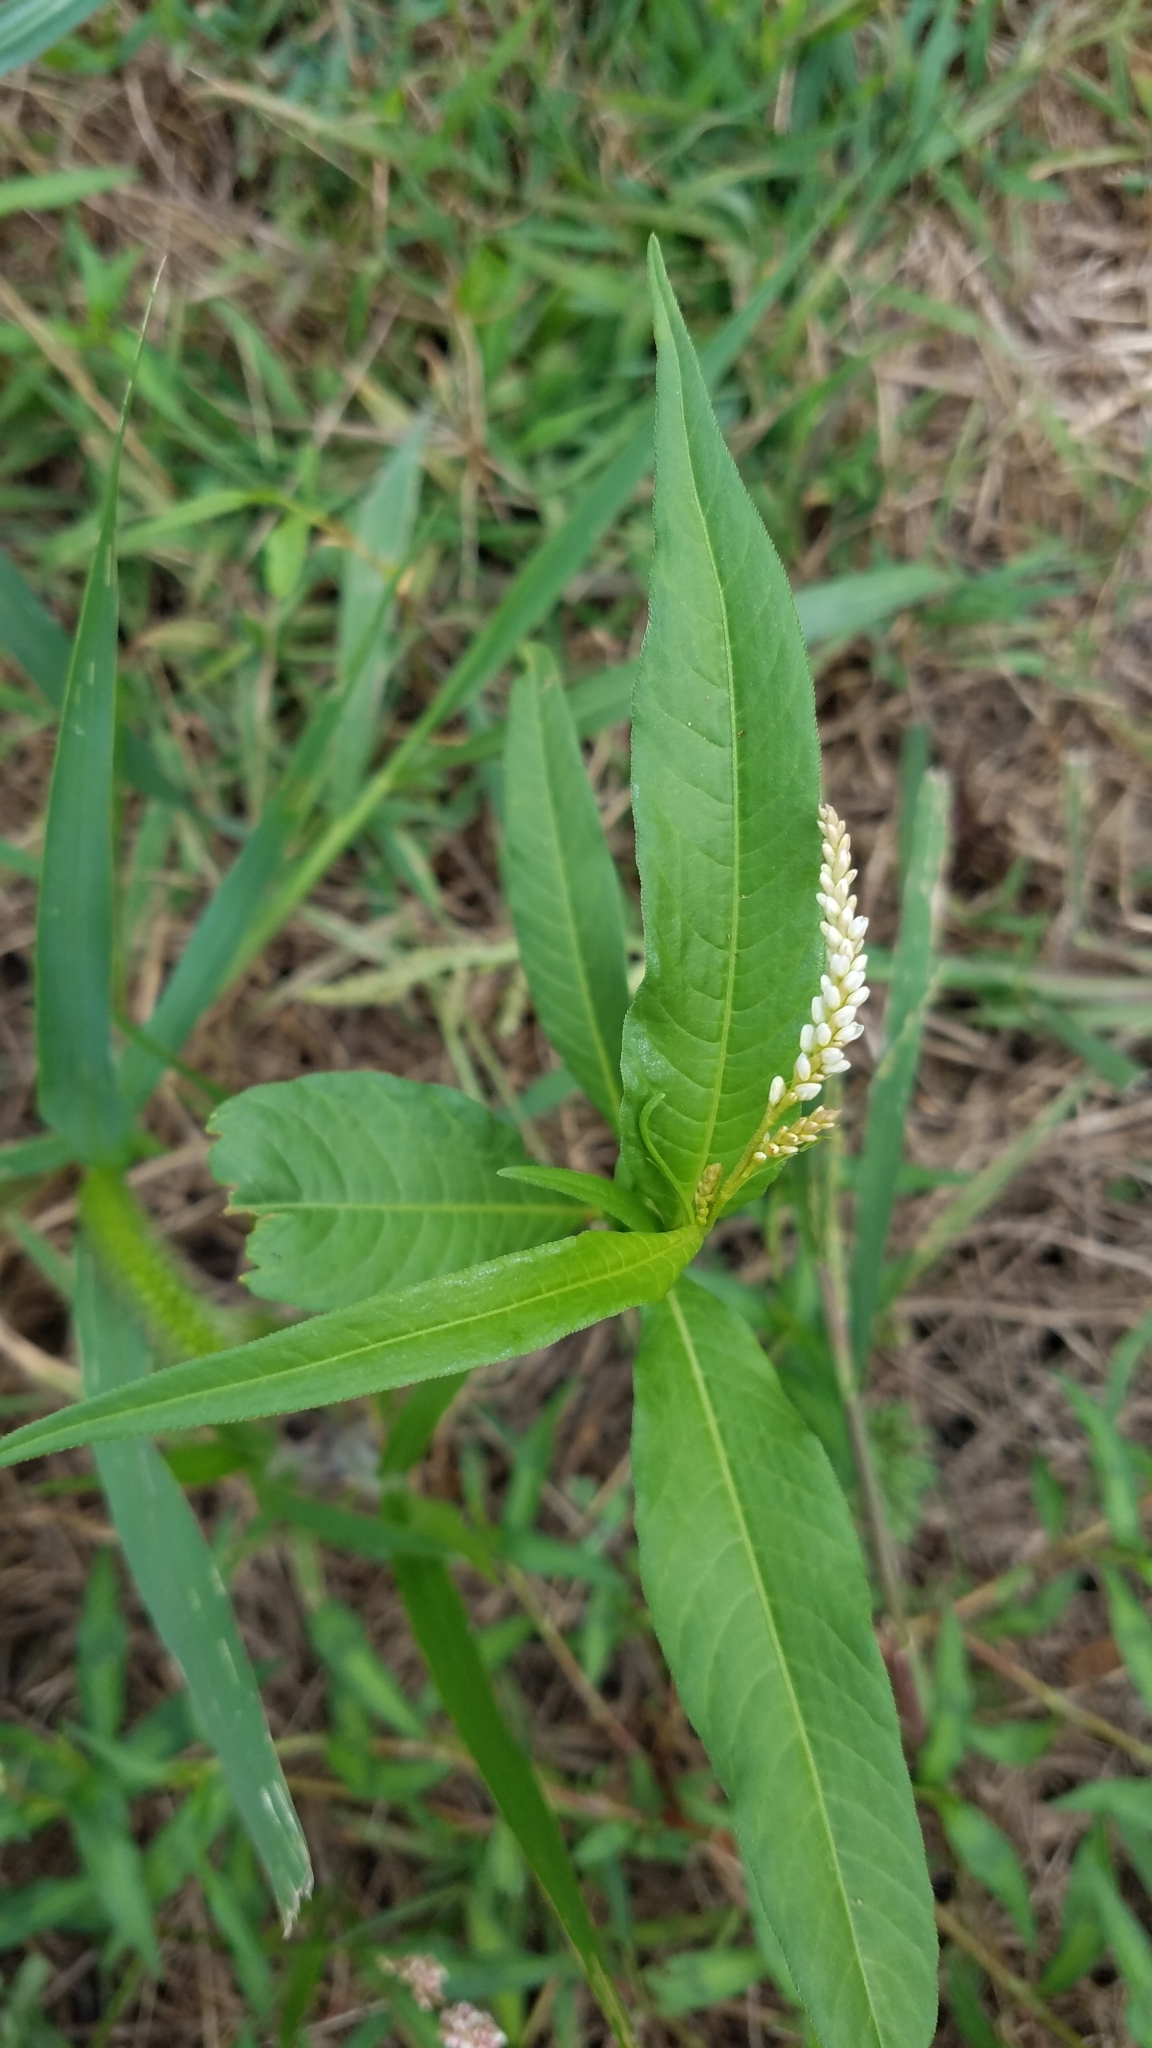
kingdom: Plantae
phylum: Tracheophyta
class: Magnoliopsida
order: Caryophyllales
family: Polygonaceae
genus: Persicaria
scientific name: Persicaria lapathifolia
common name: Curlytop knotweed
